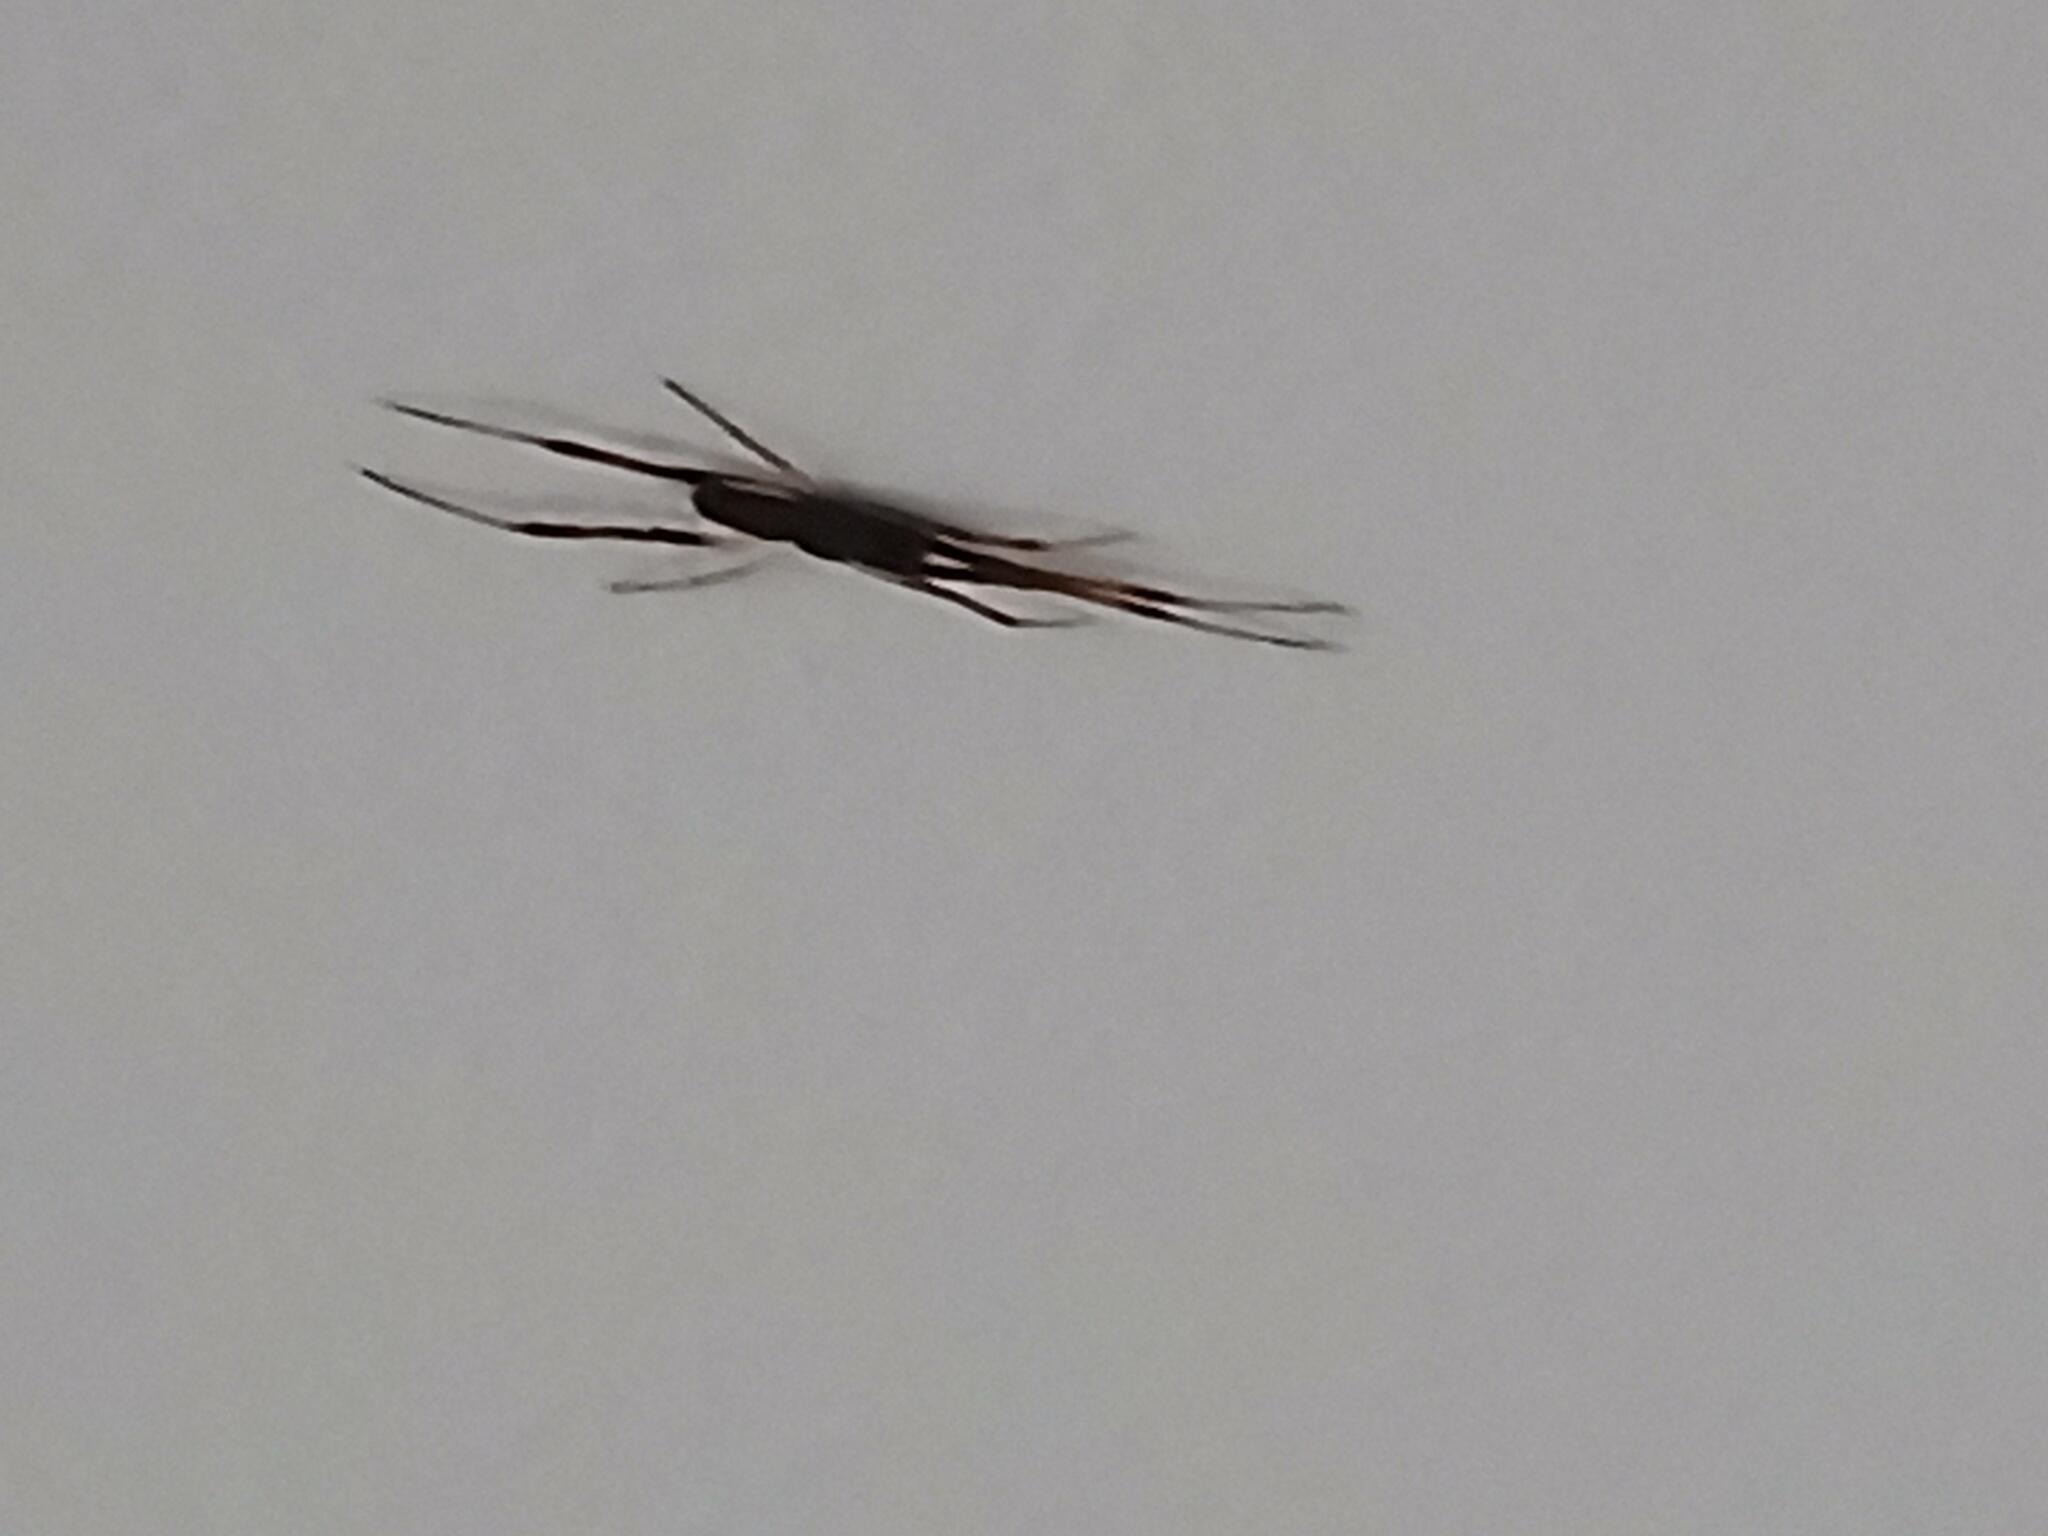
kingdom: Animalia
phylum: Arthropoda
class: Arachnida
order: Araneae
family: Theridiidae
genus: Episinus
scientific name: Episinus truncatus
